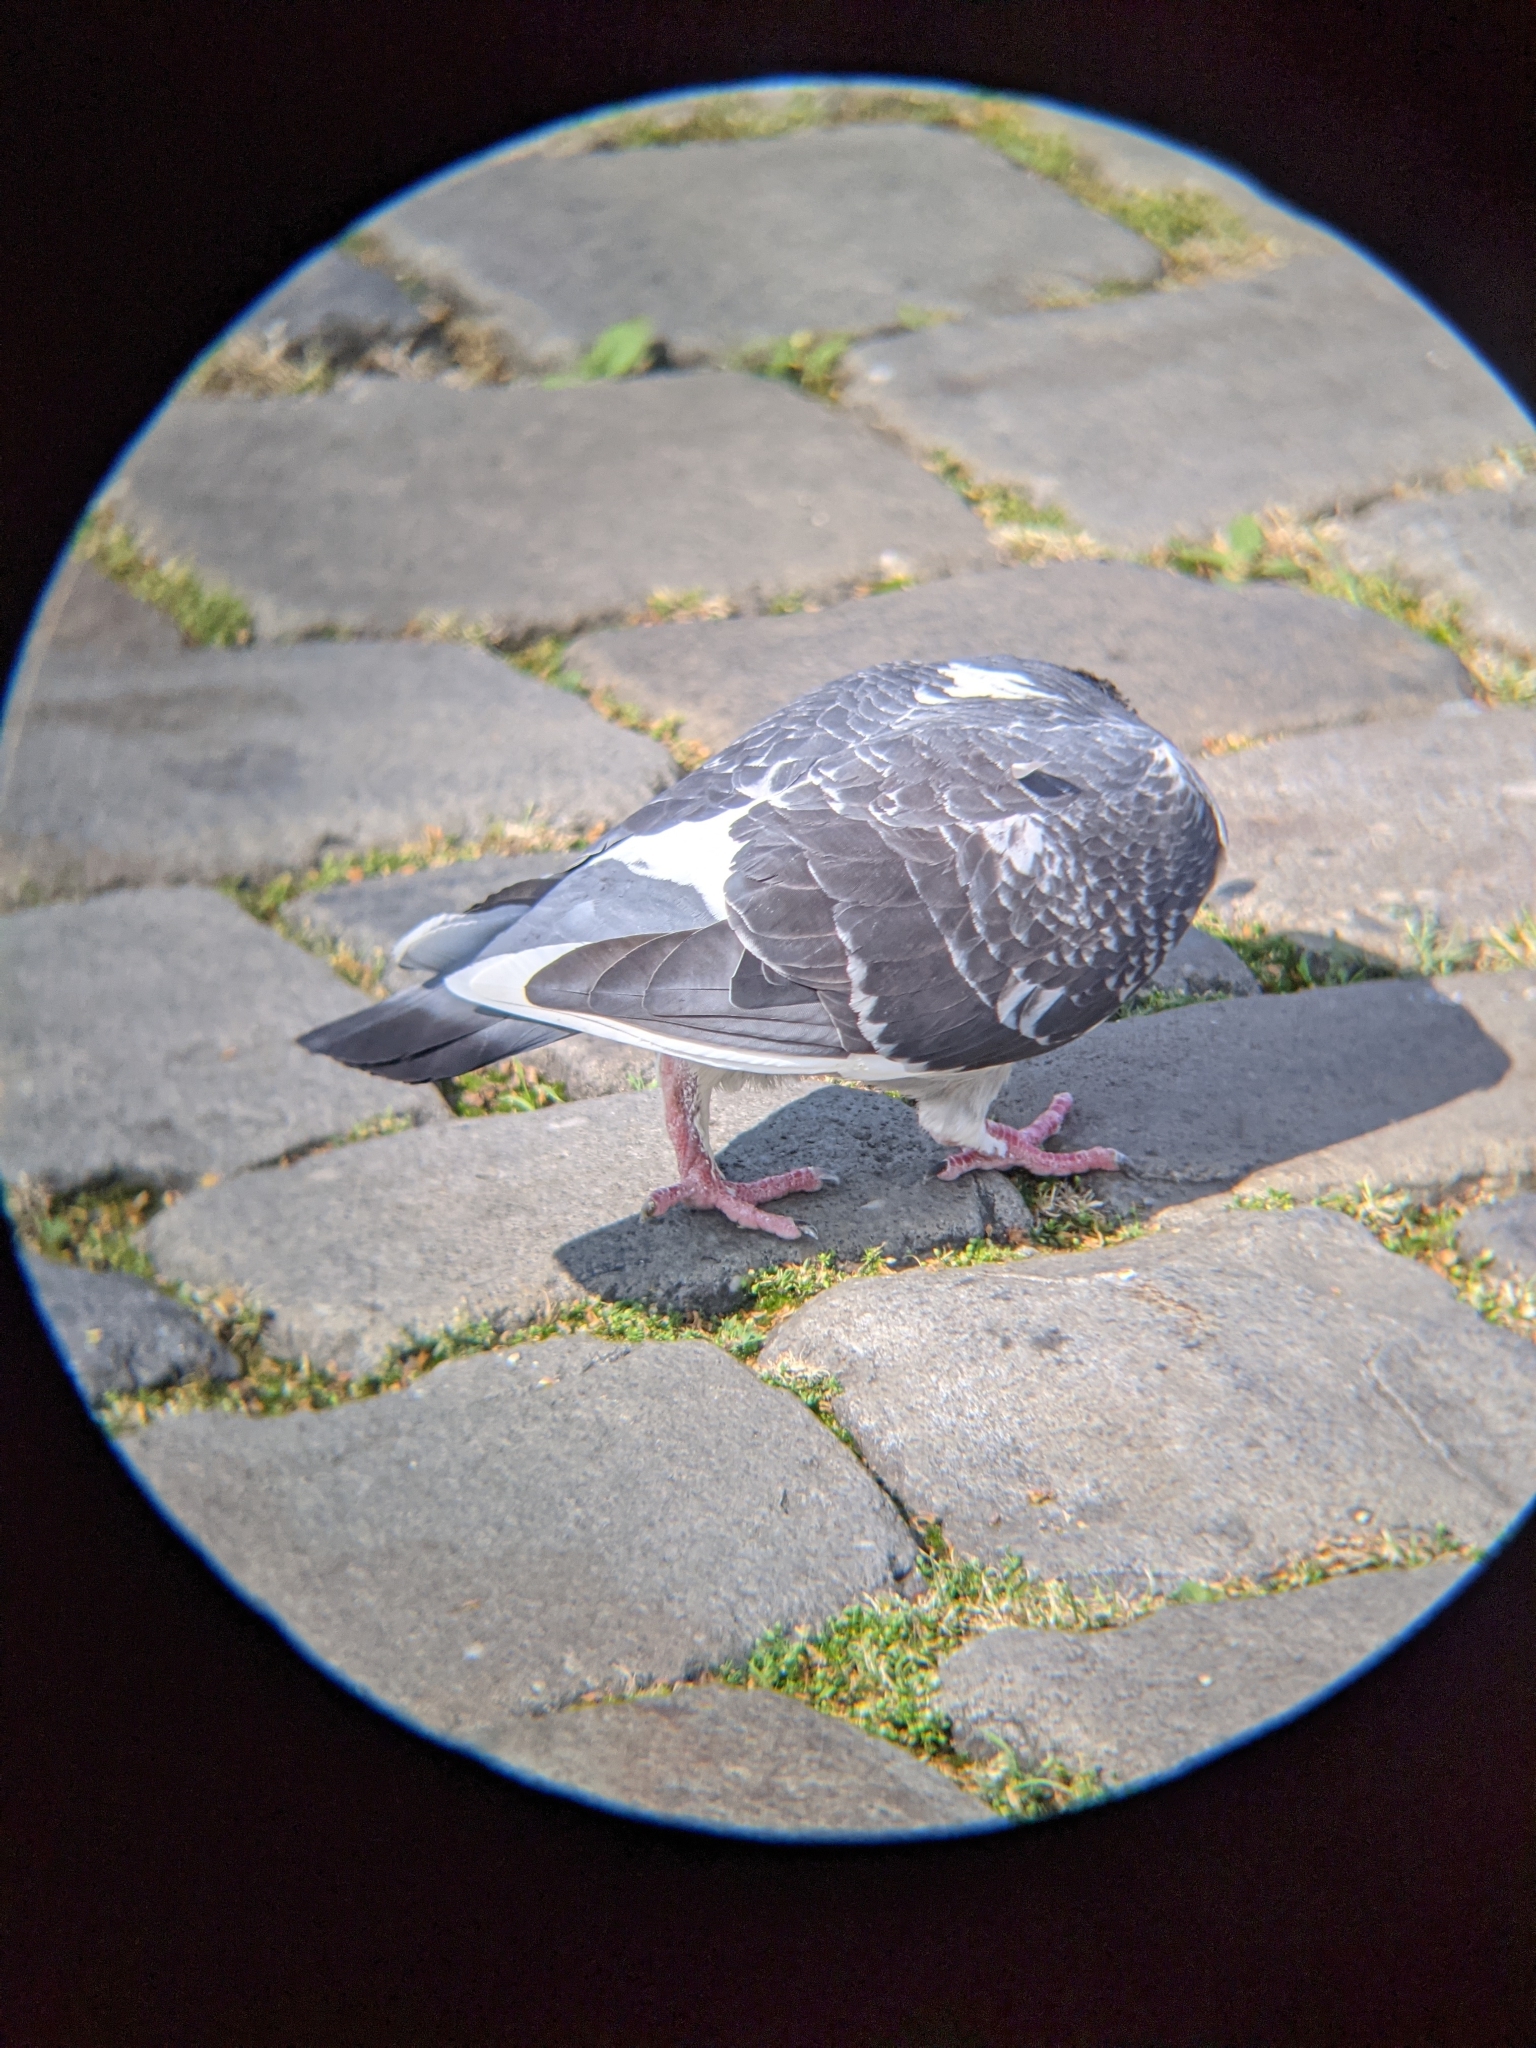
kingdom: Animalia
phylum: Chordata
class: Aves
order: Columbiformes
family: Columbidae
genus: Columba
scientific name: Columba livia
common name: Rock pigeon
